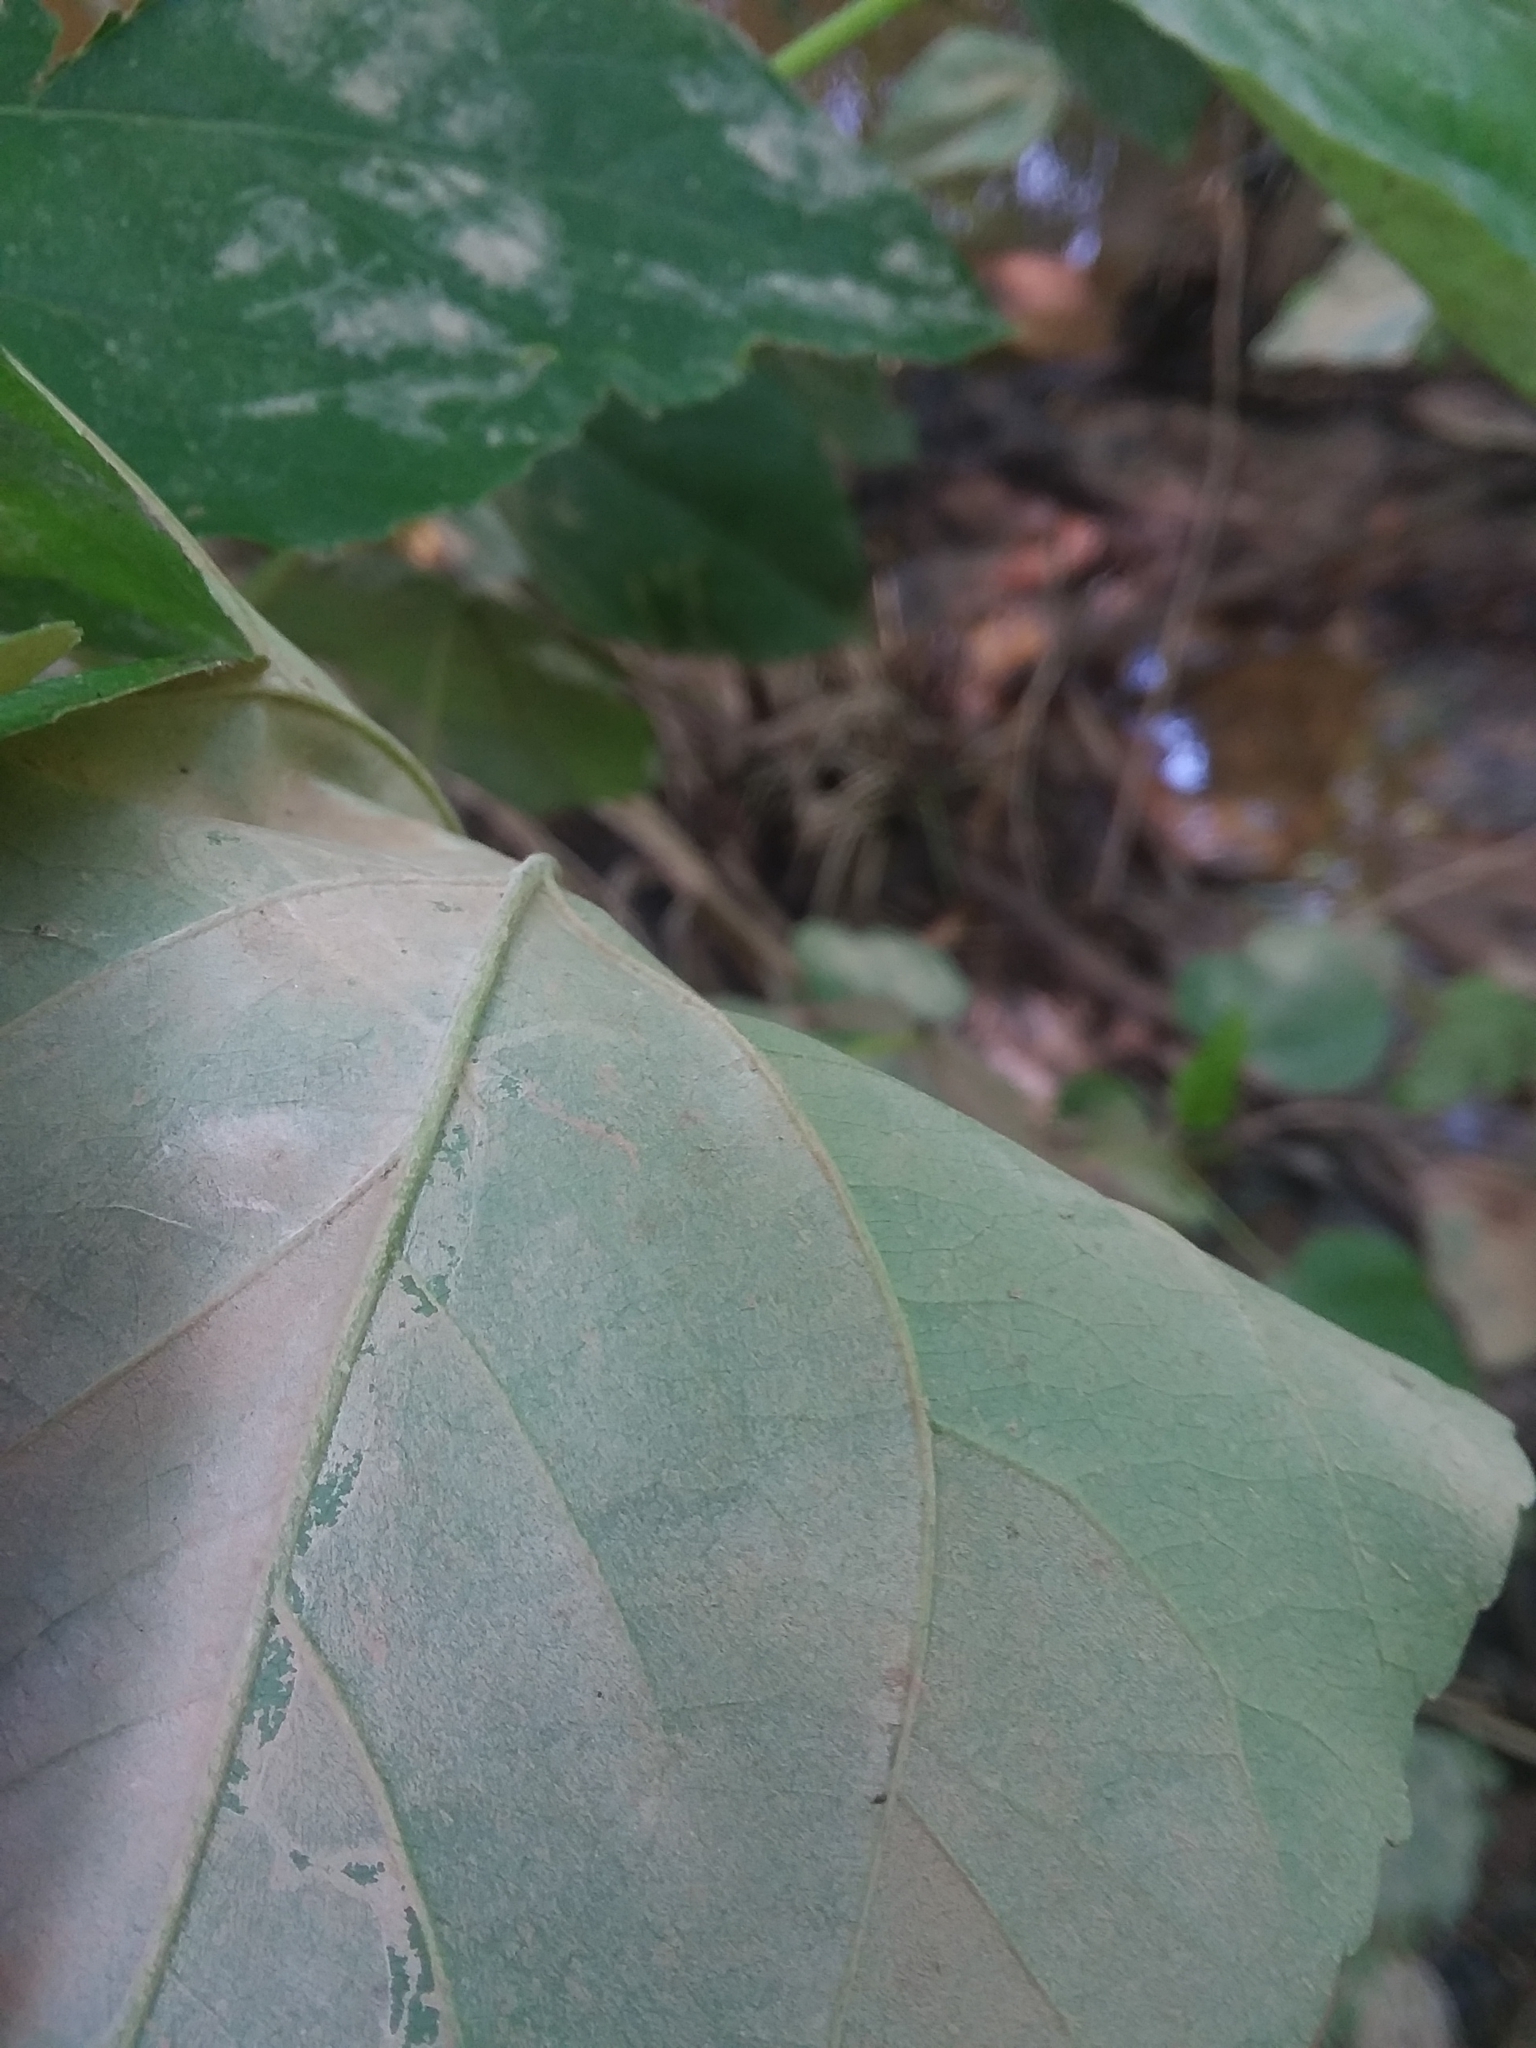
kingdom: Plantae
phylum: Tracheophyta
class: Magnoliopsida
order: Malpighiales
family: Salicaceae
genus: Populus
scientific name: Populus heterophylla
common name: Downy poplar
